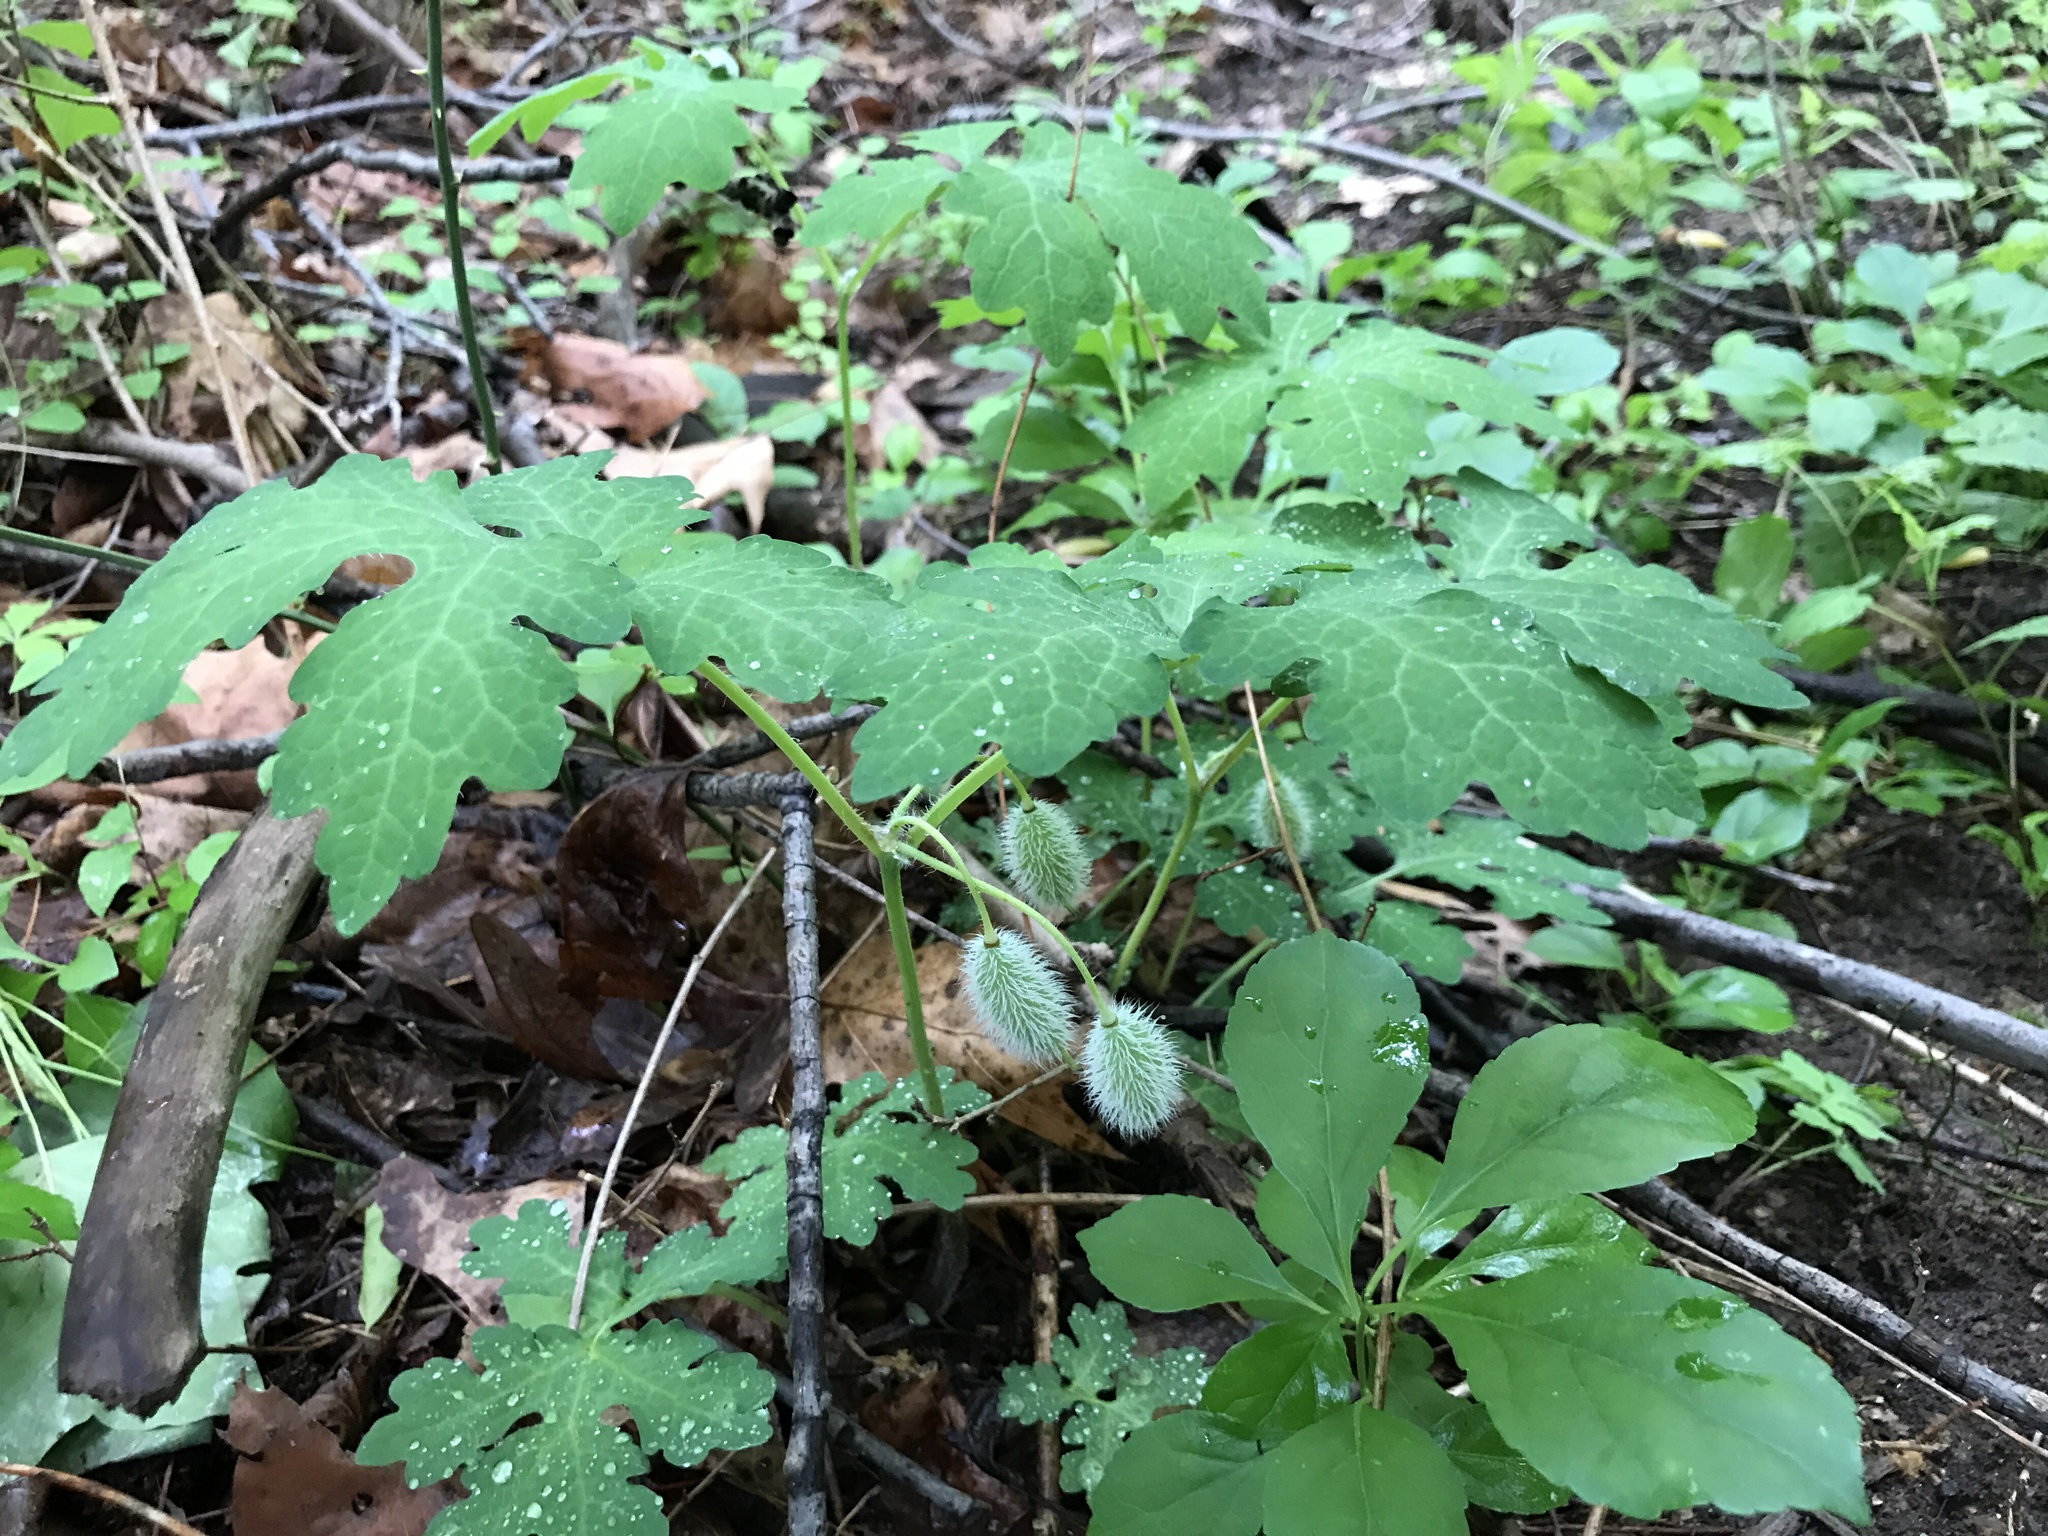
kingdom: Plantae
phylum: Tracheophyta
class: Magnoliopsida
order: Ranunculales
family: Papaveraceae
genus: Stylophorum
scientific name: Stylophorum diphyllum
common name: Celandine poppy
